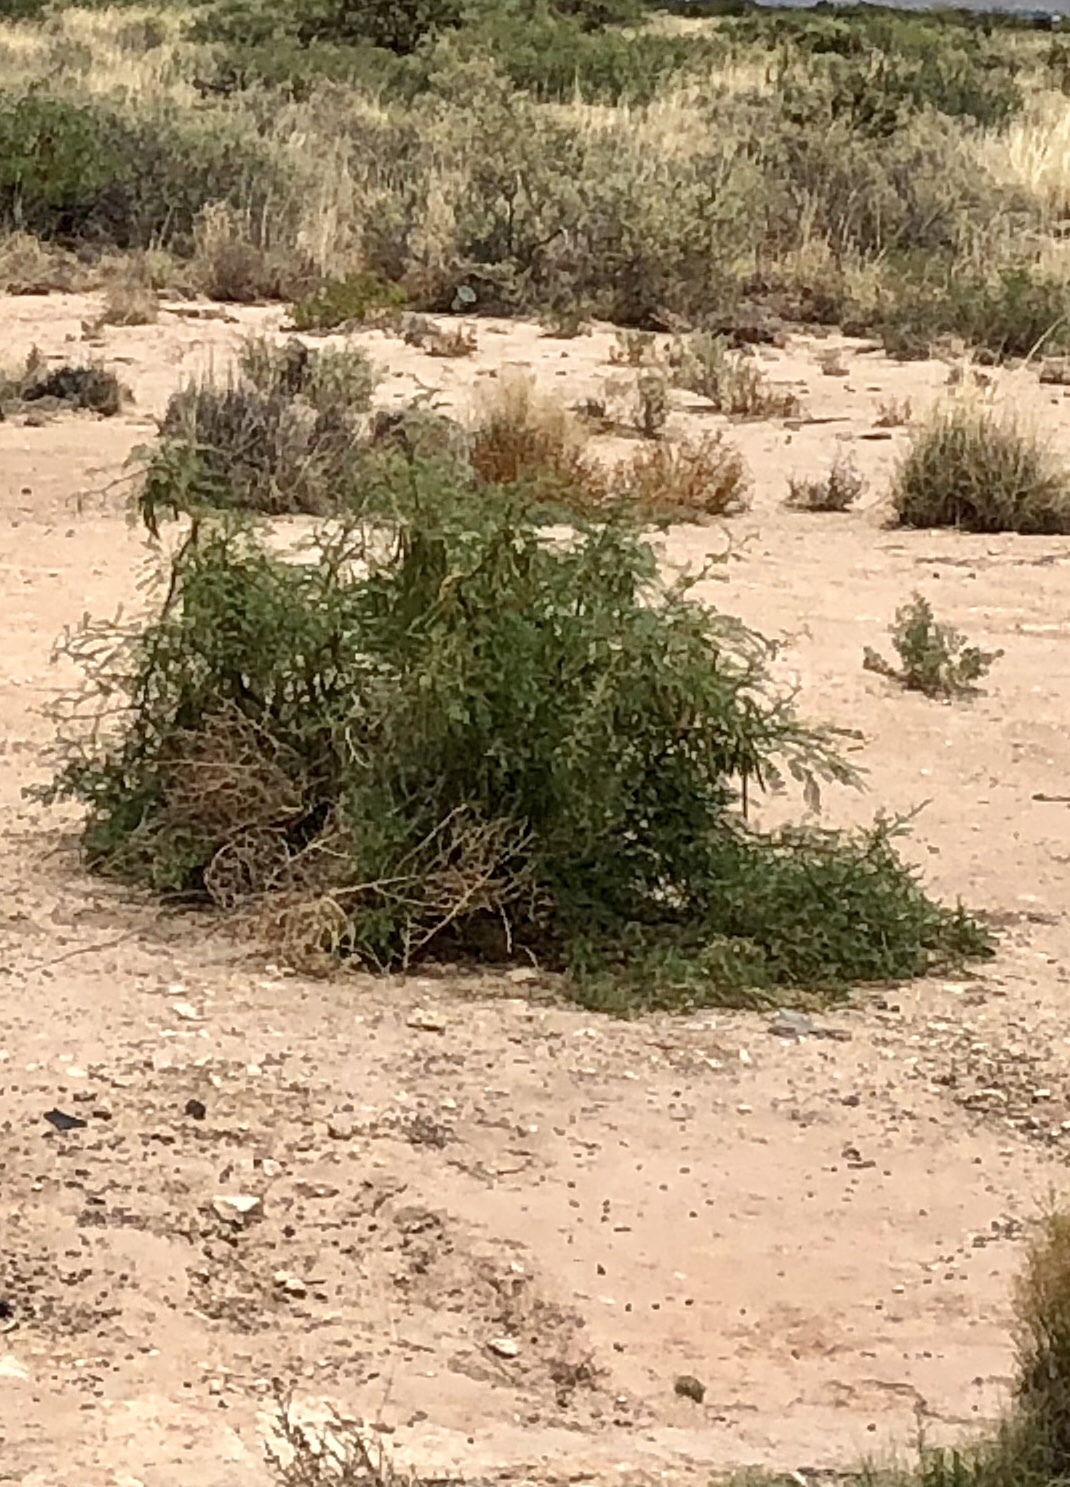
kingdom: Plantae
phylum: Tracheophyta
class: Magnoliopsida
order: Fabales
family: Fabaceae
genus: Prosopis
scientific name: Prosopis glandulosa
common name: Honey mesquite
